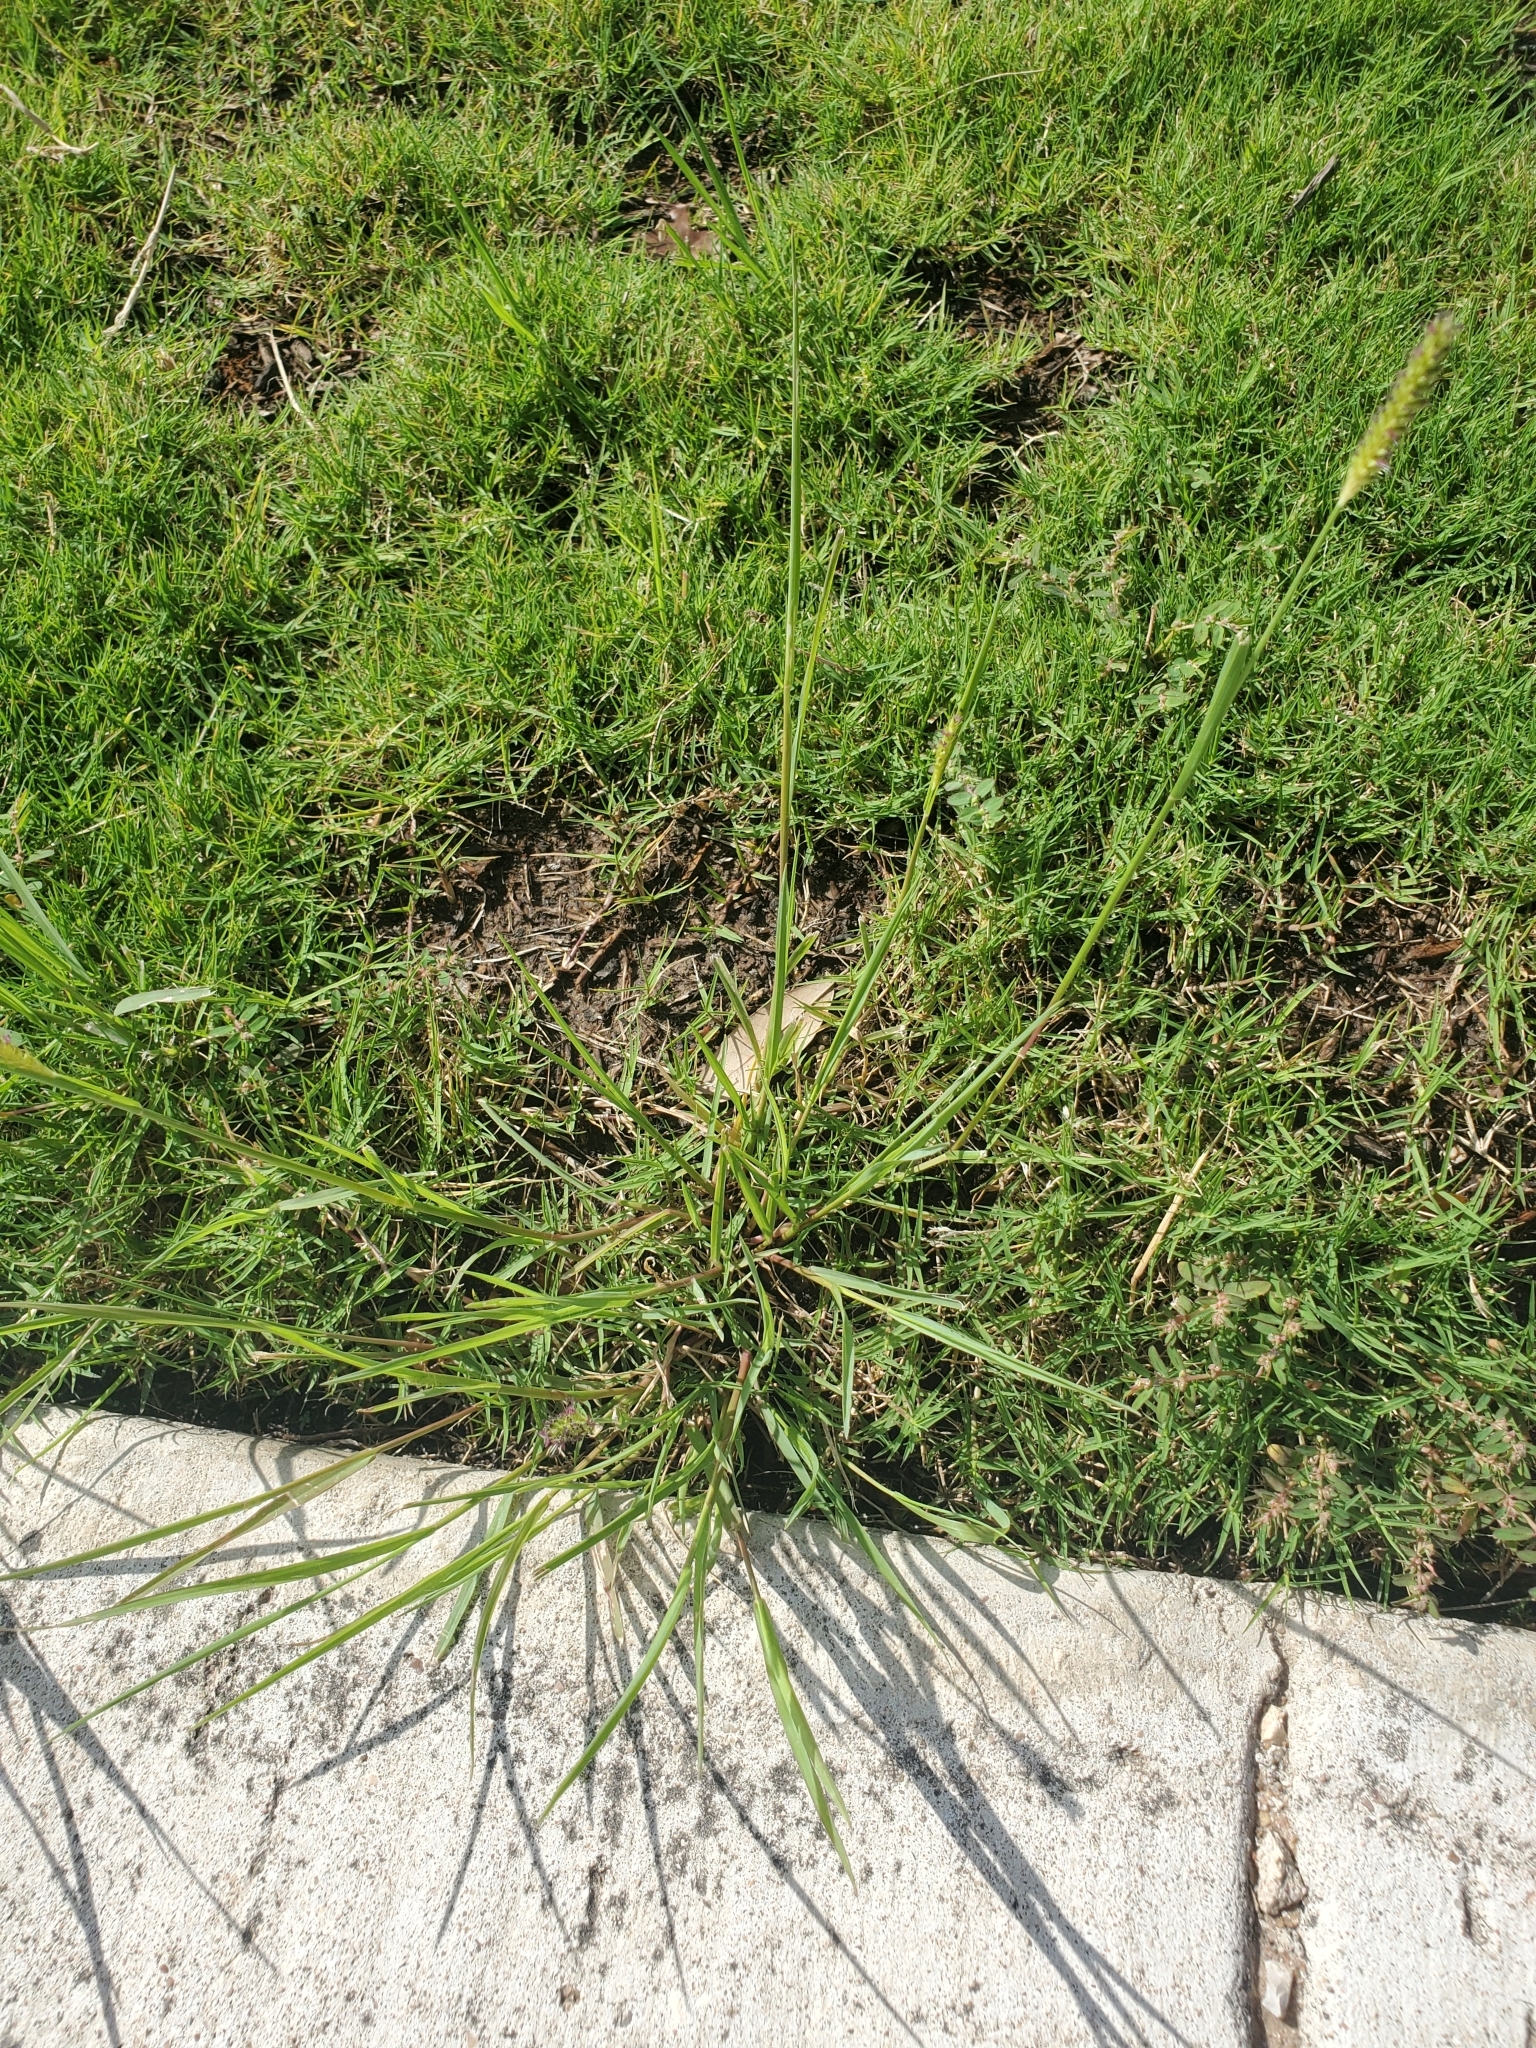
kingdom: Plantae
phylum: Tracheophyta
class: Liliopsida
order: Poales
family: Poaceae
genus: Setaria
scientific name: Setaria parviflora
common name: Knotroot bristle-grass
